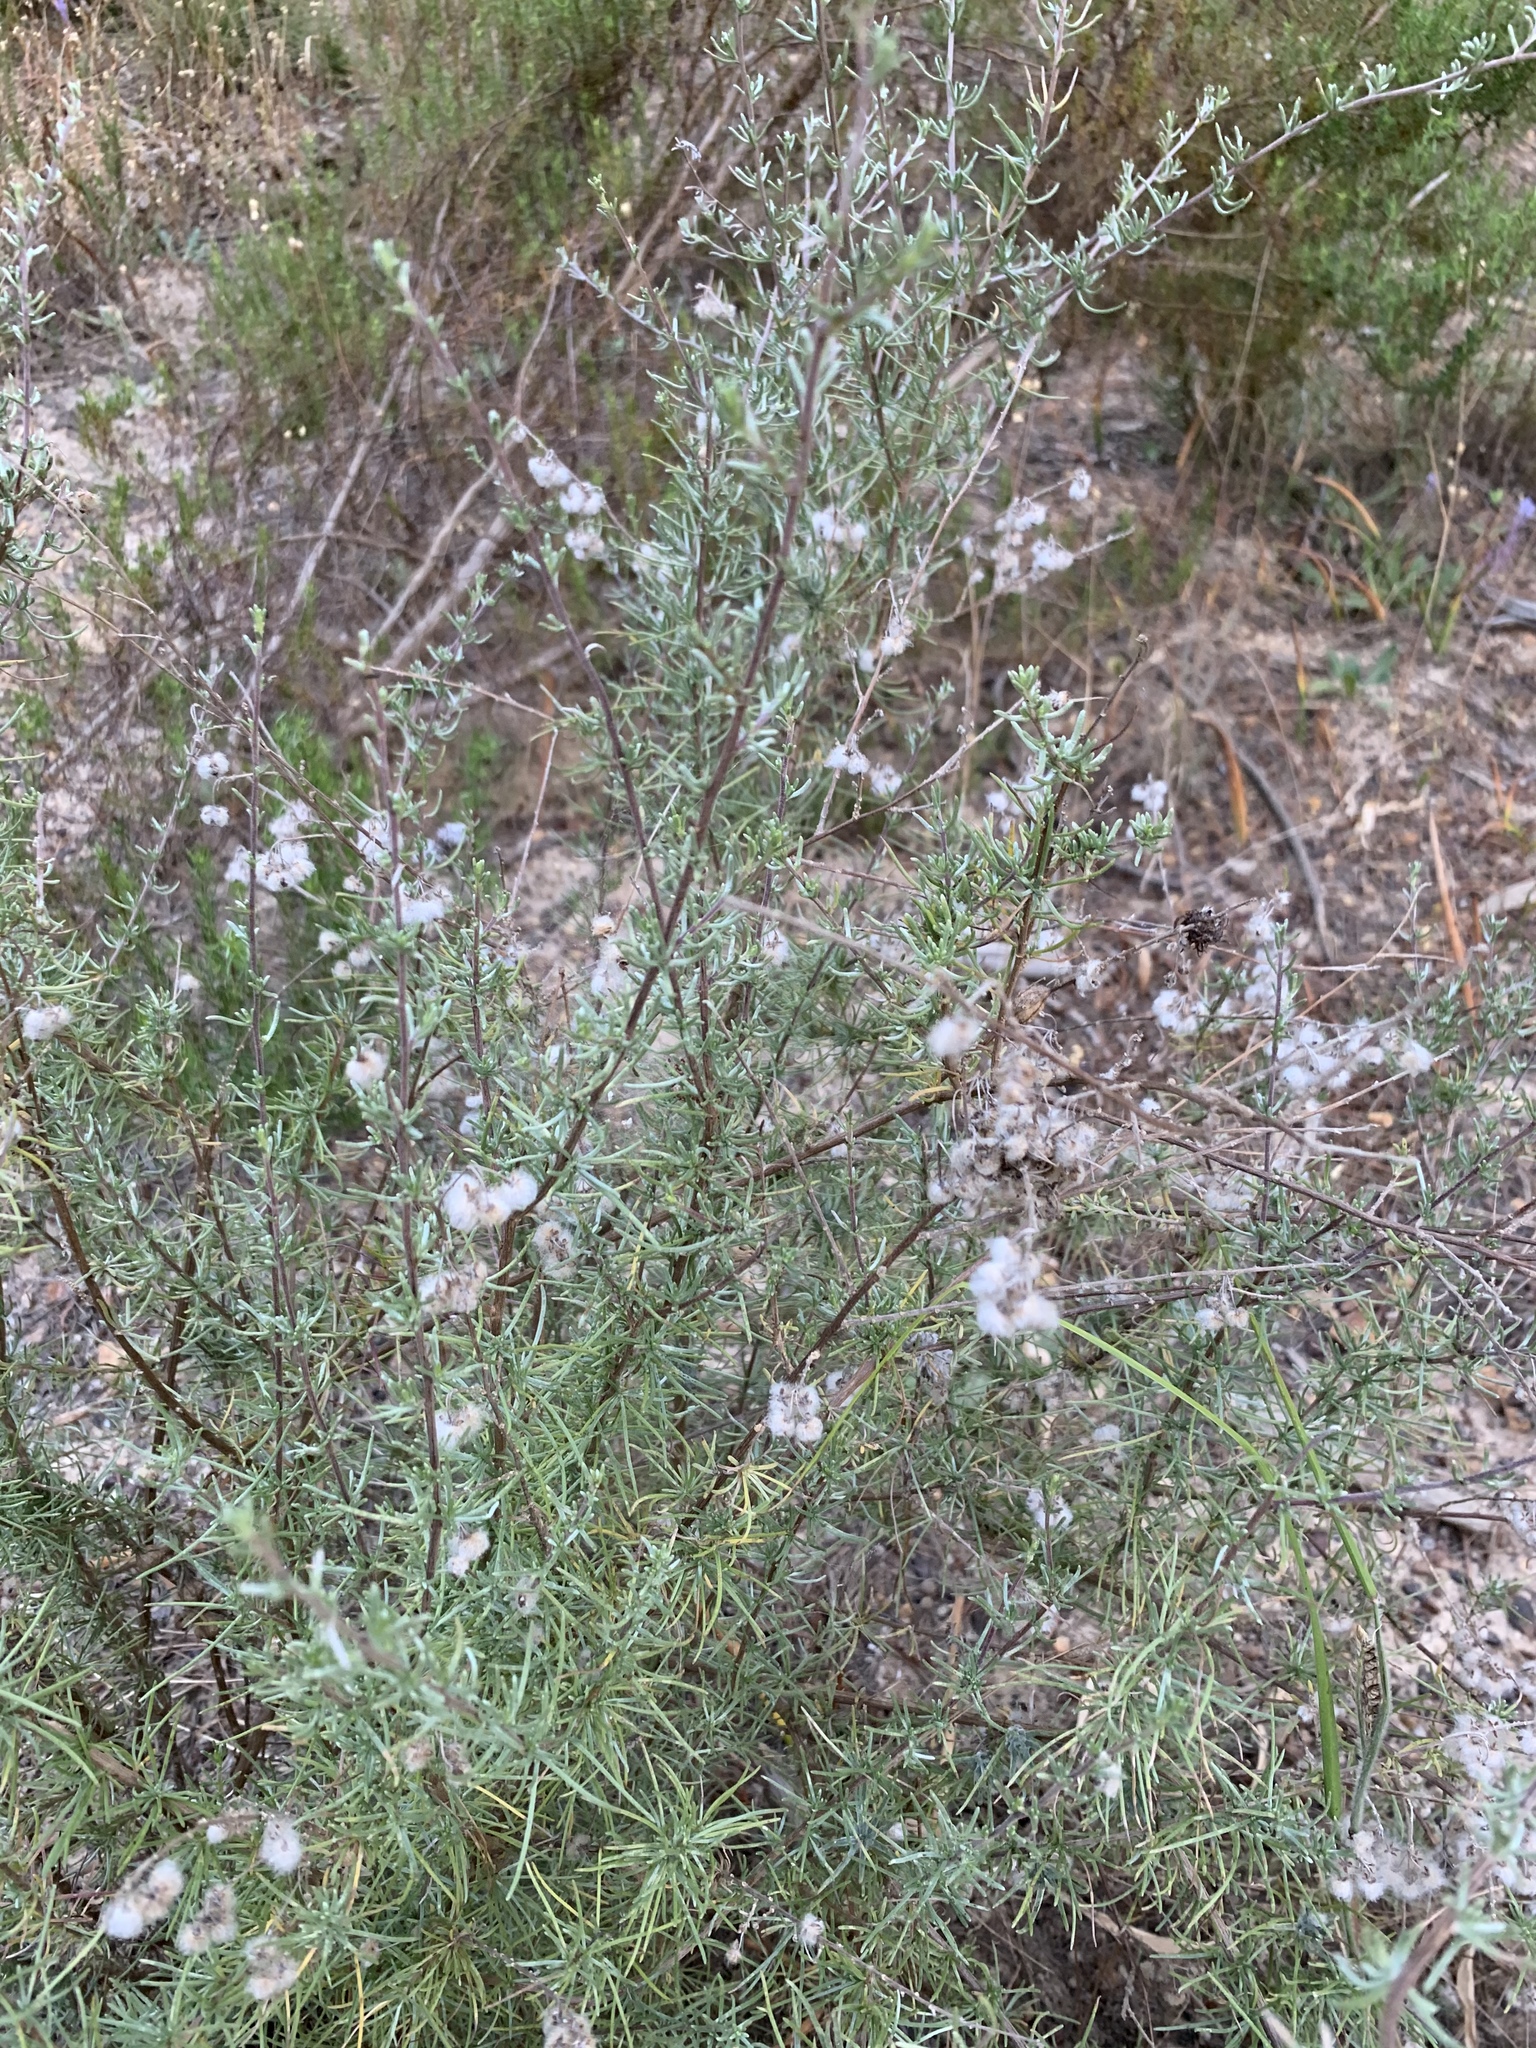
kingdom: Plantae
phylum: Tracheophyta
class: Magnoliopsida
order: Asterales
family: Asteraceae
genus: Eriocephalus
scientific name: Eriocephalus africanus
